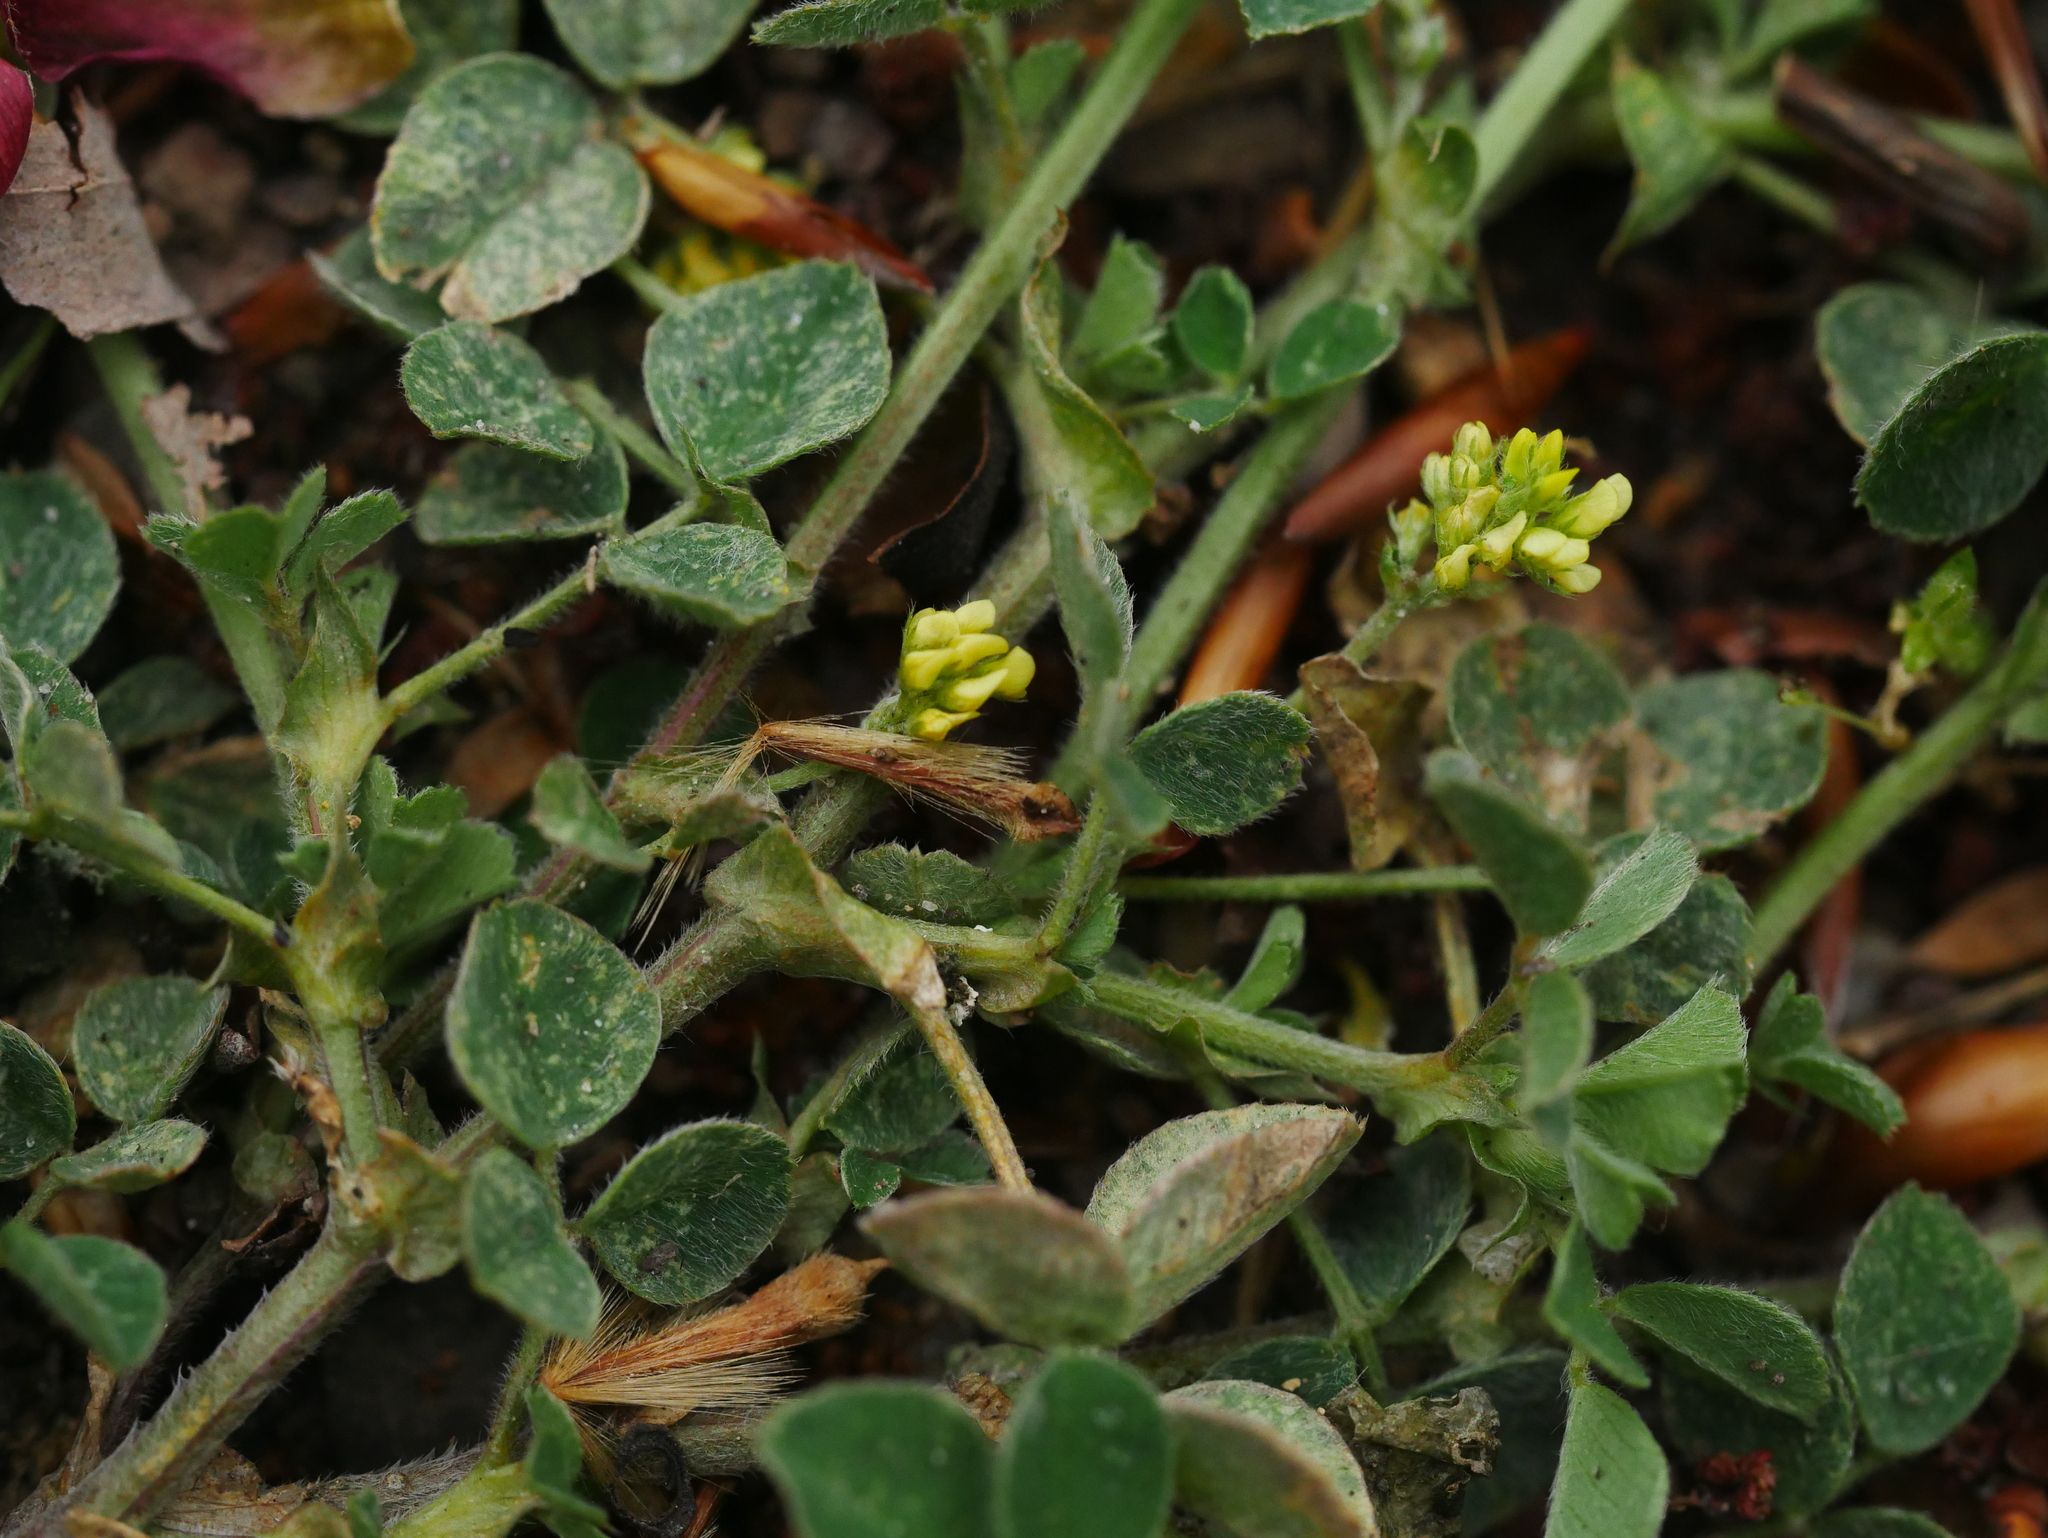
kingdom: Plantae
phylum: Tracheophyta
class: Magnoliopsida
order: Fabales
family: Fabaceae
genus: Medicago
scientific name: Medicago lupulina
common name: Black medick
